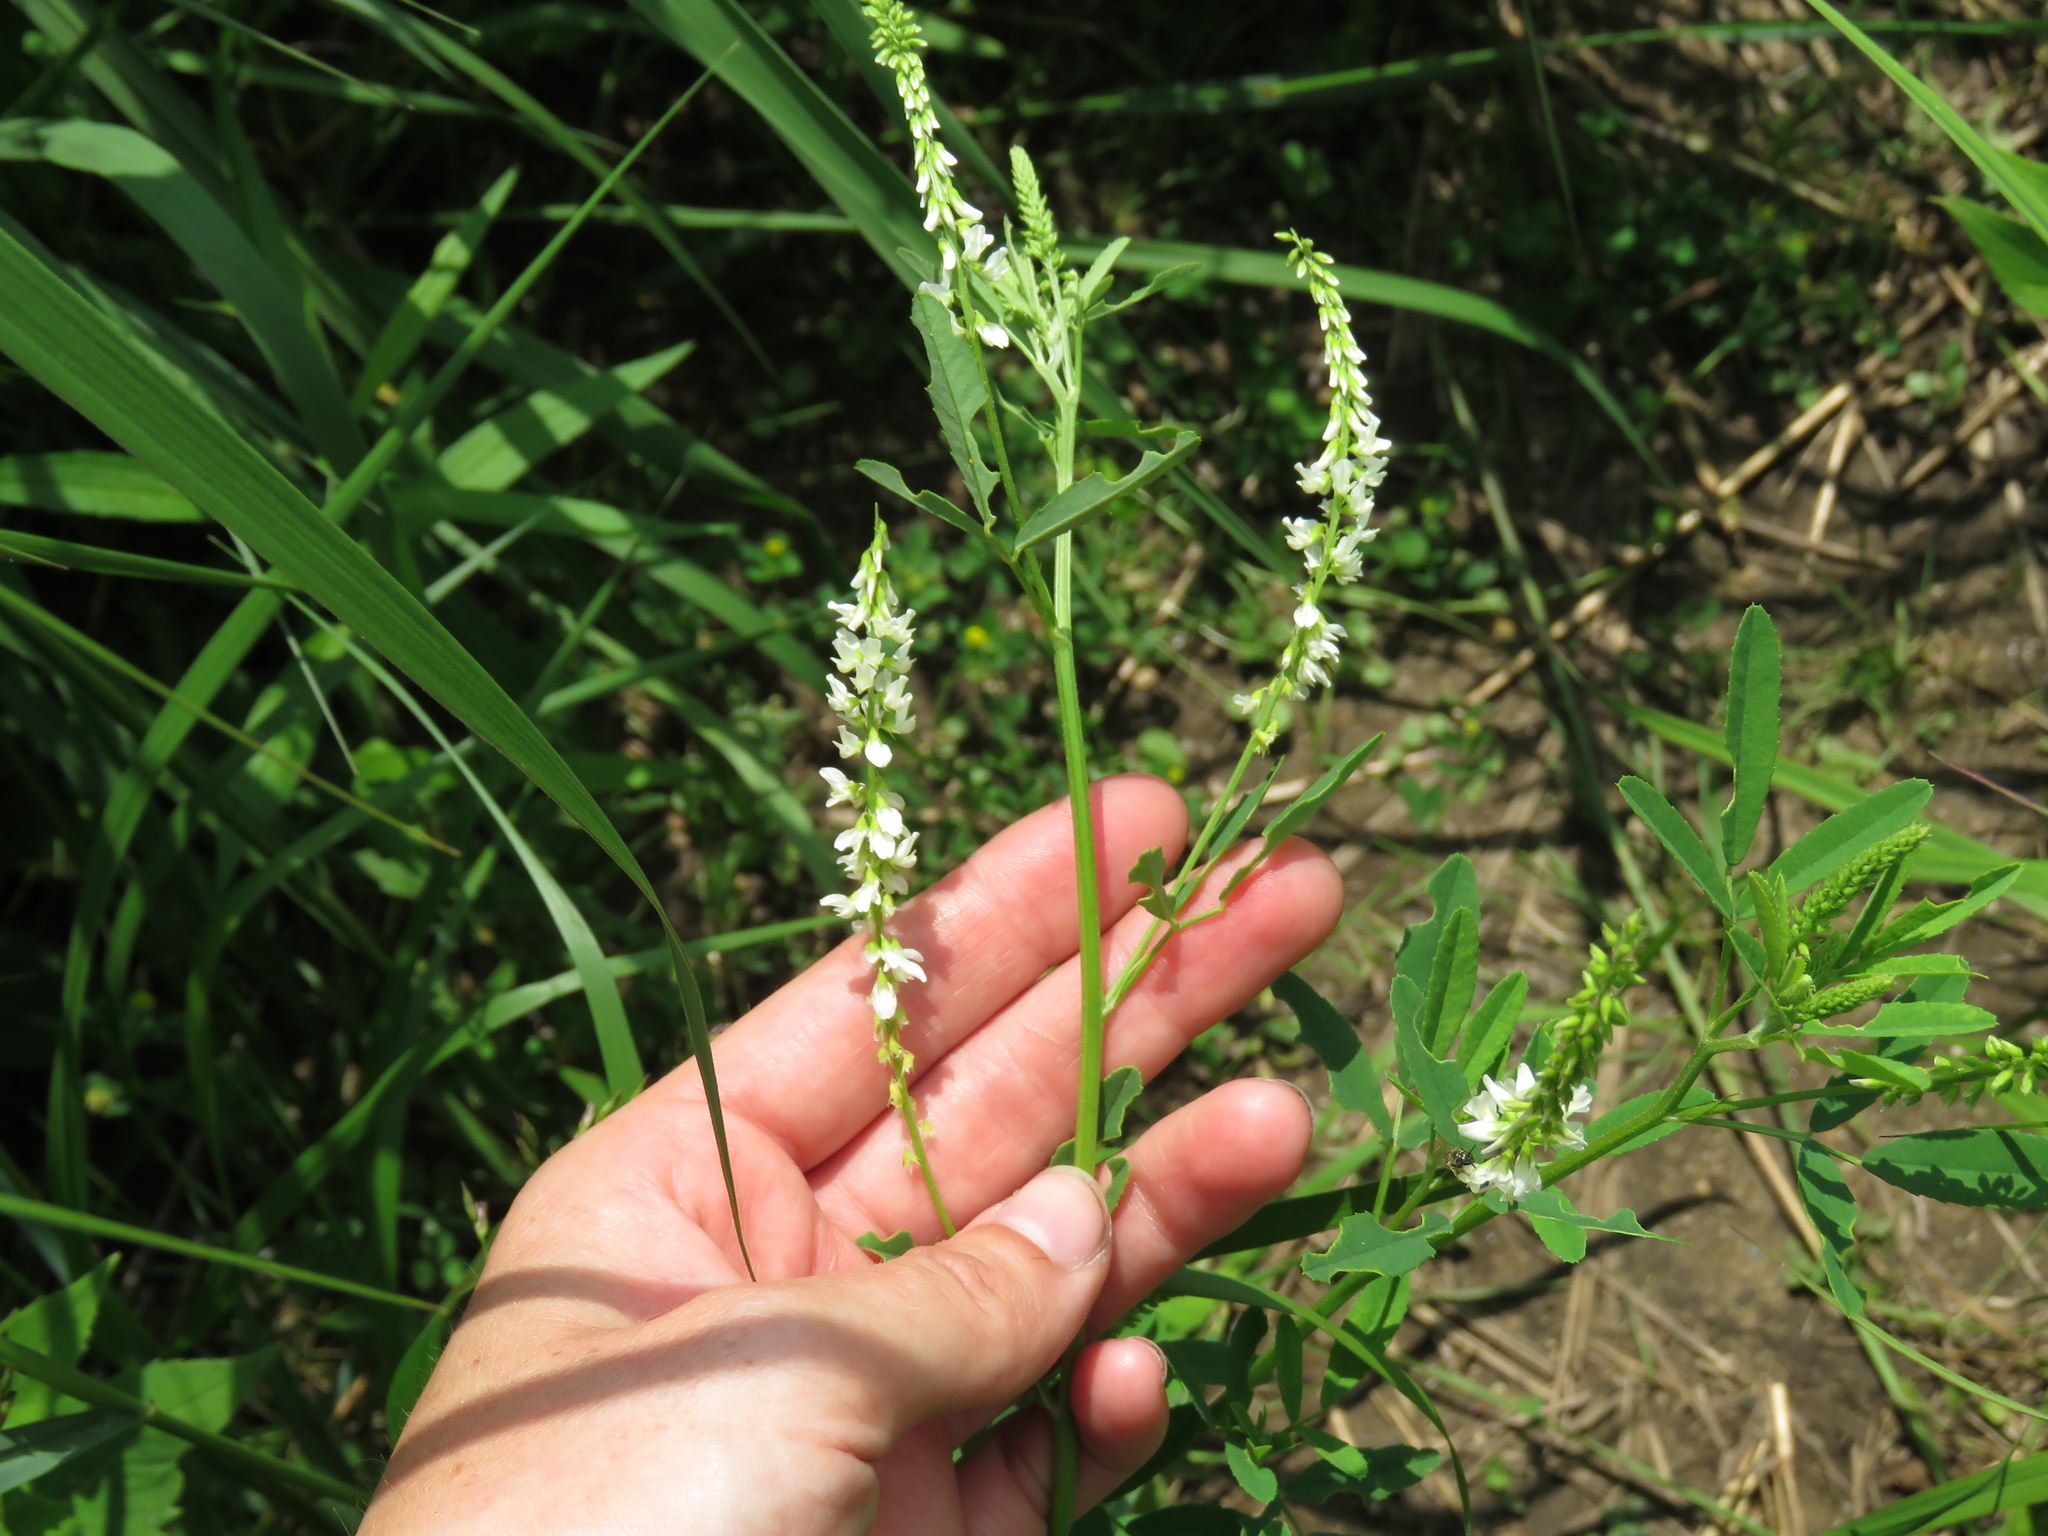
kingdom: Plantae
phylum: Tracheophyta
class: Magnoliopsida
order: Fabales
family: Fabaceae
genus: Melilotus
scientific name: Melilotus albus
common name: White melilot
